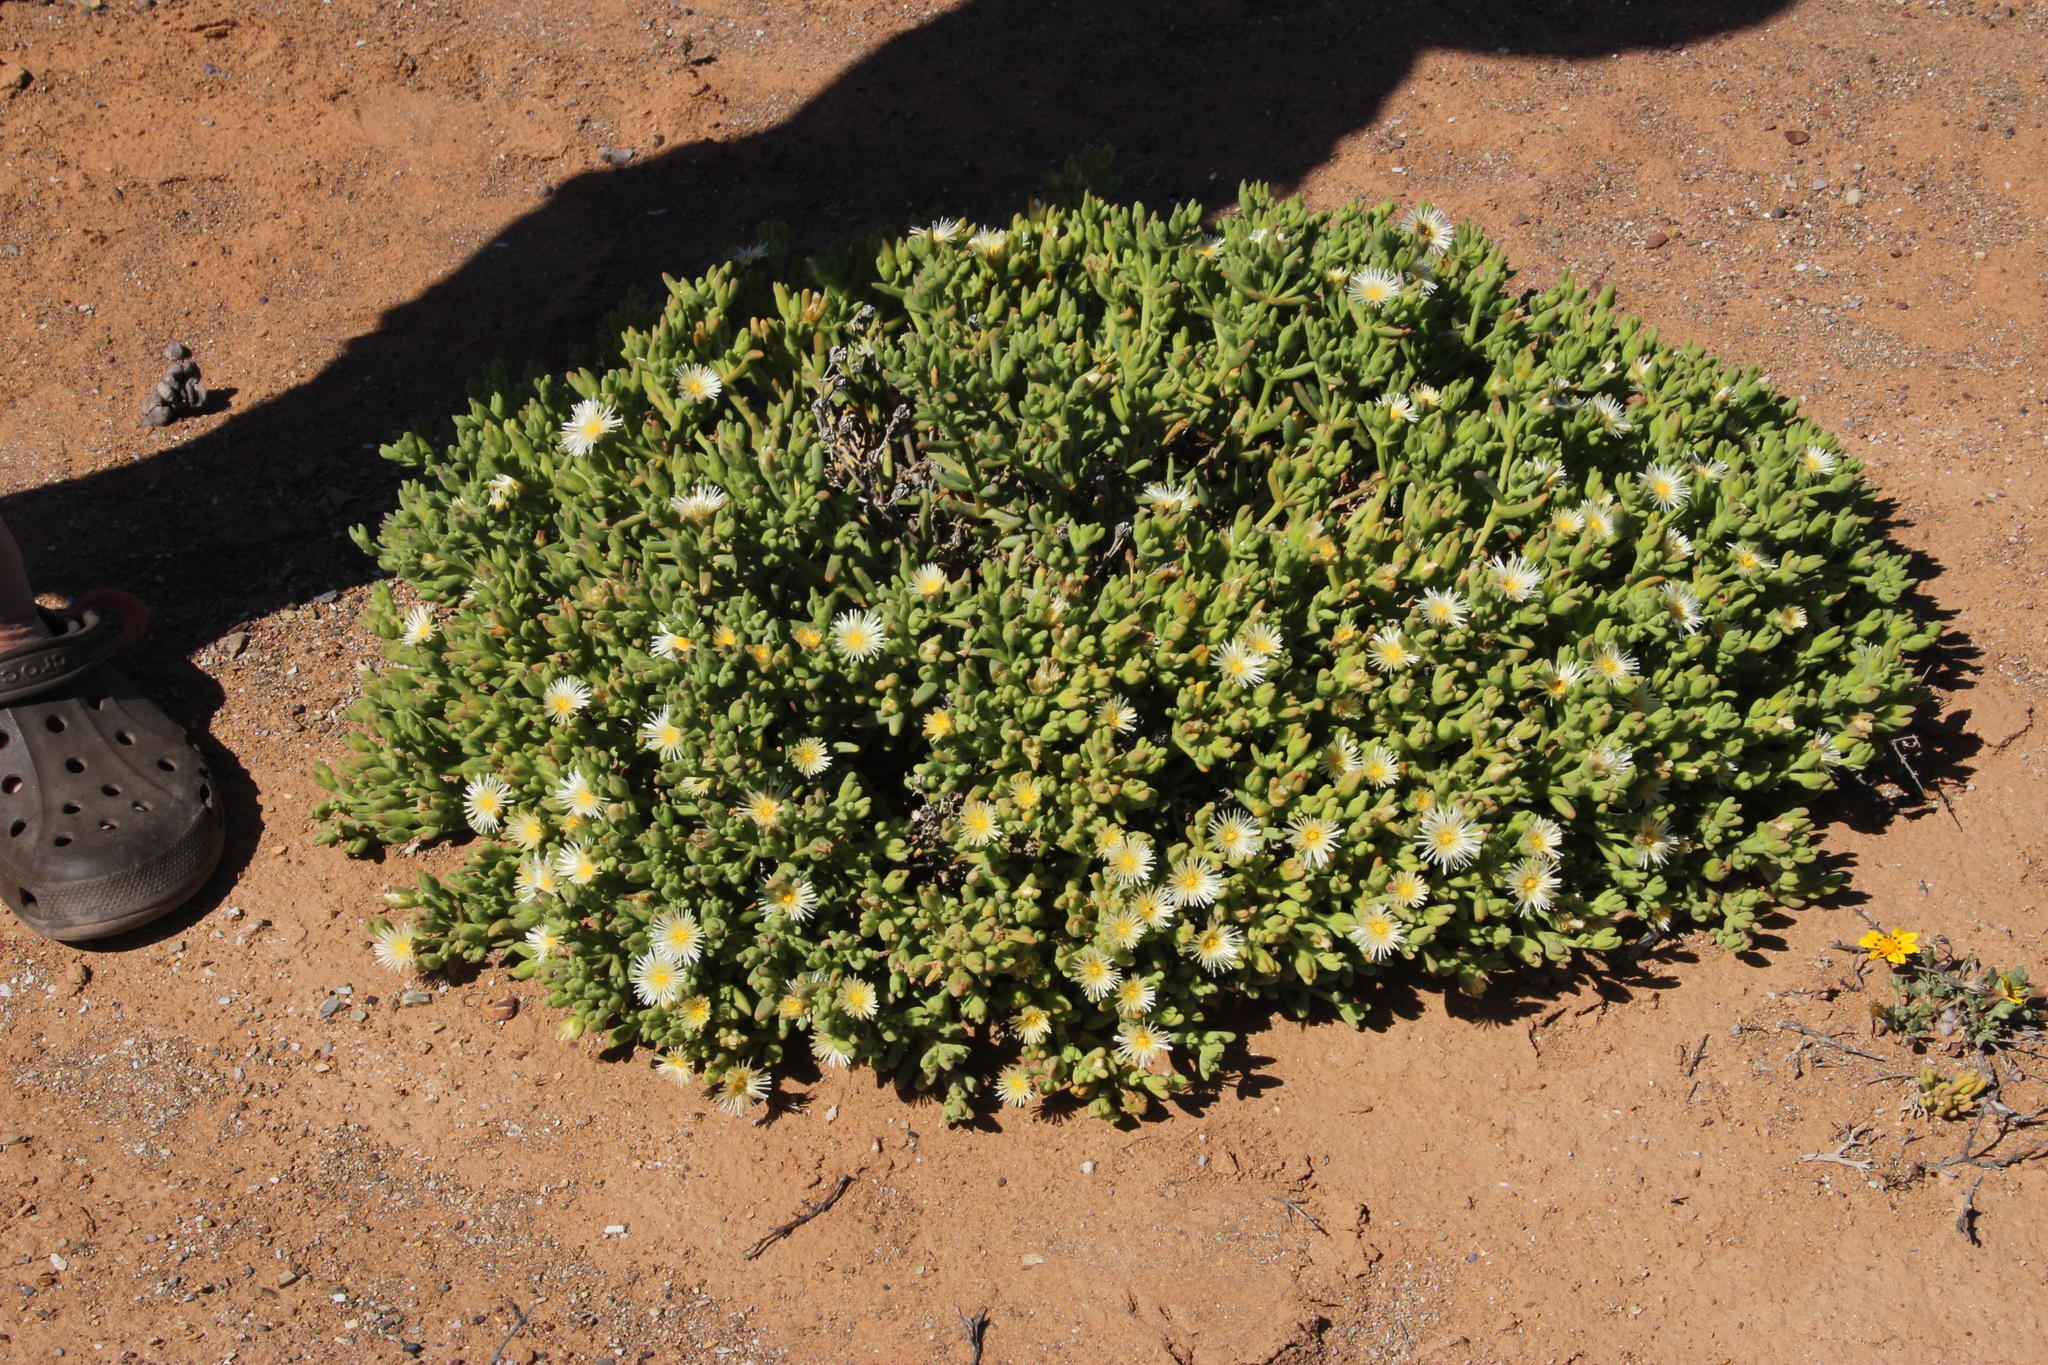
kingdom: Plantae
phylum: Tracheophyta
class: Magnoliopsida
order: Caryophyllales
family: Aizoaceae
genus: Mesembryanthemum
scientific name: Mesembryanthemum nitidum
